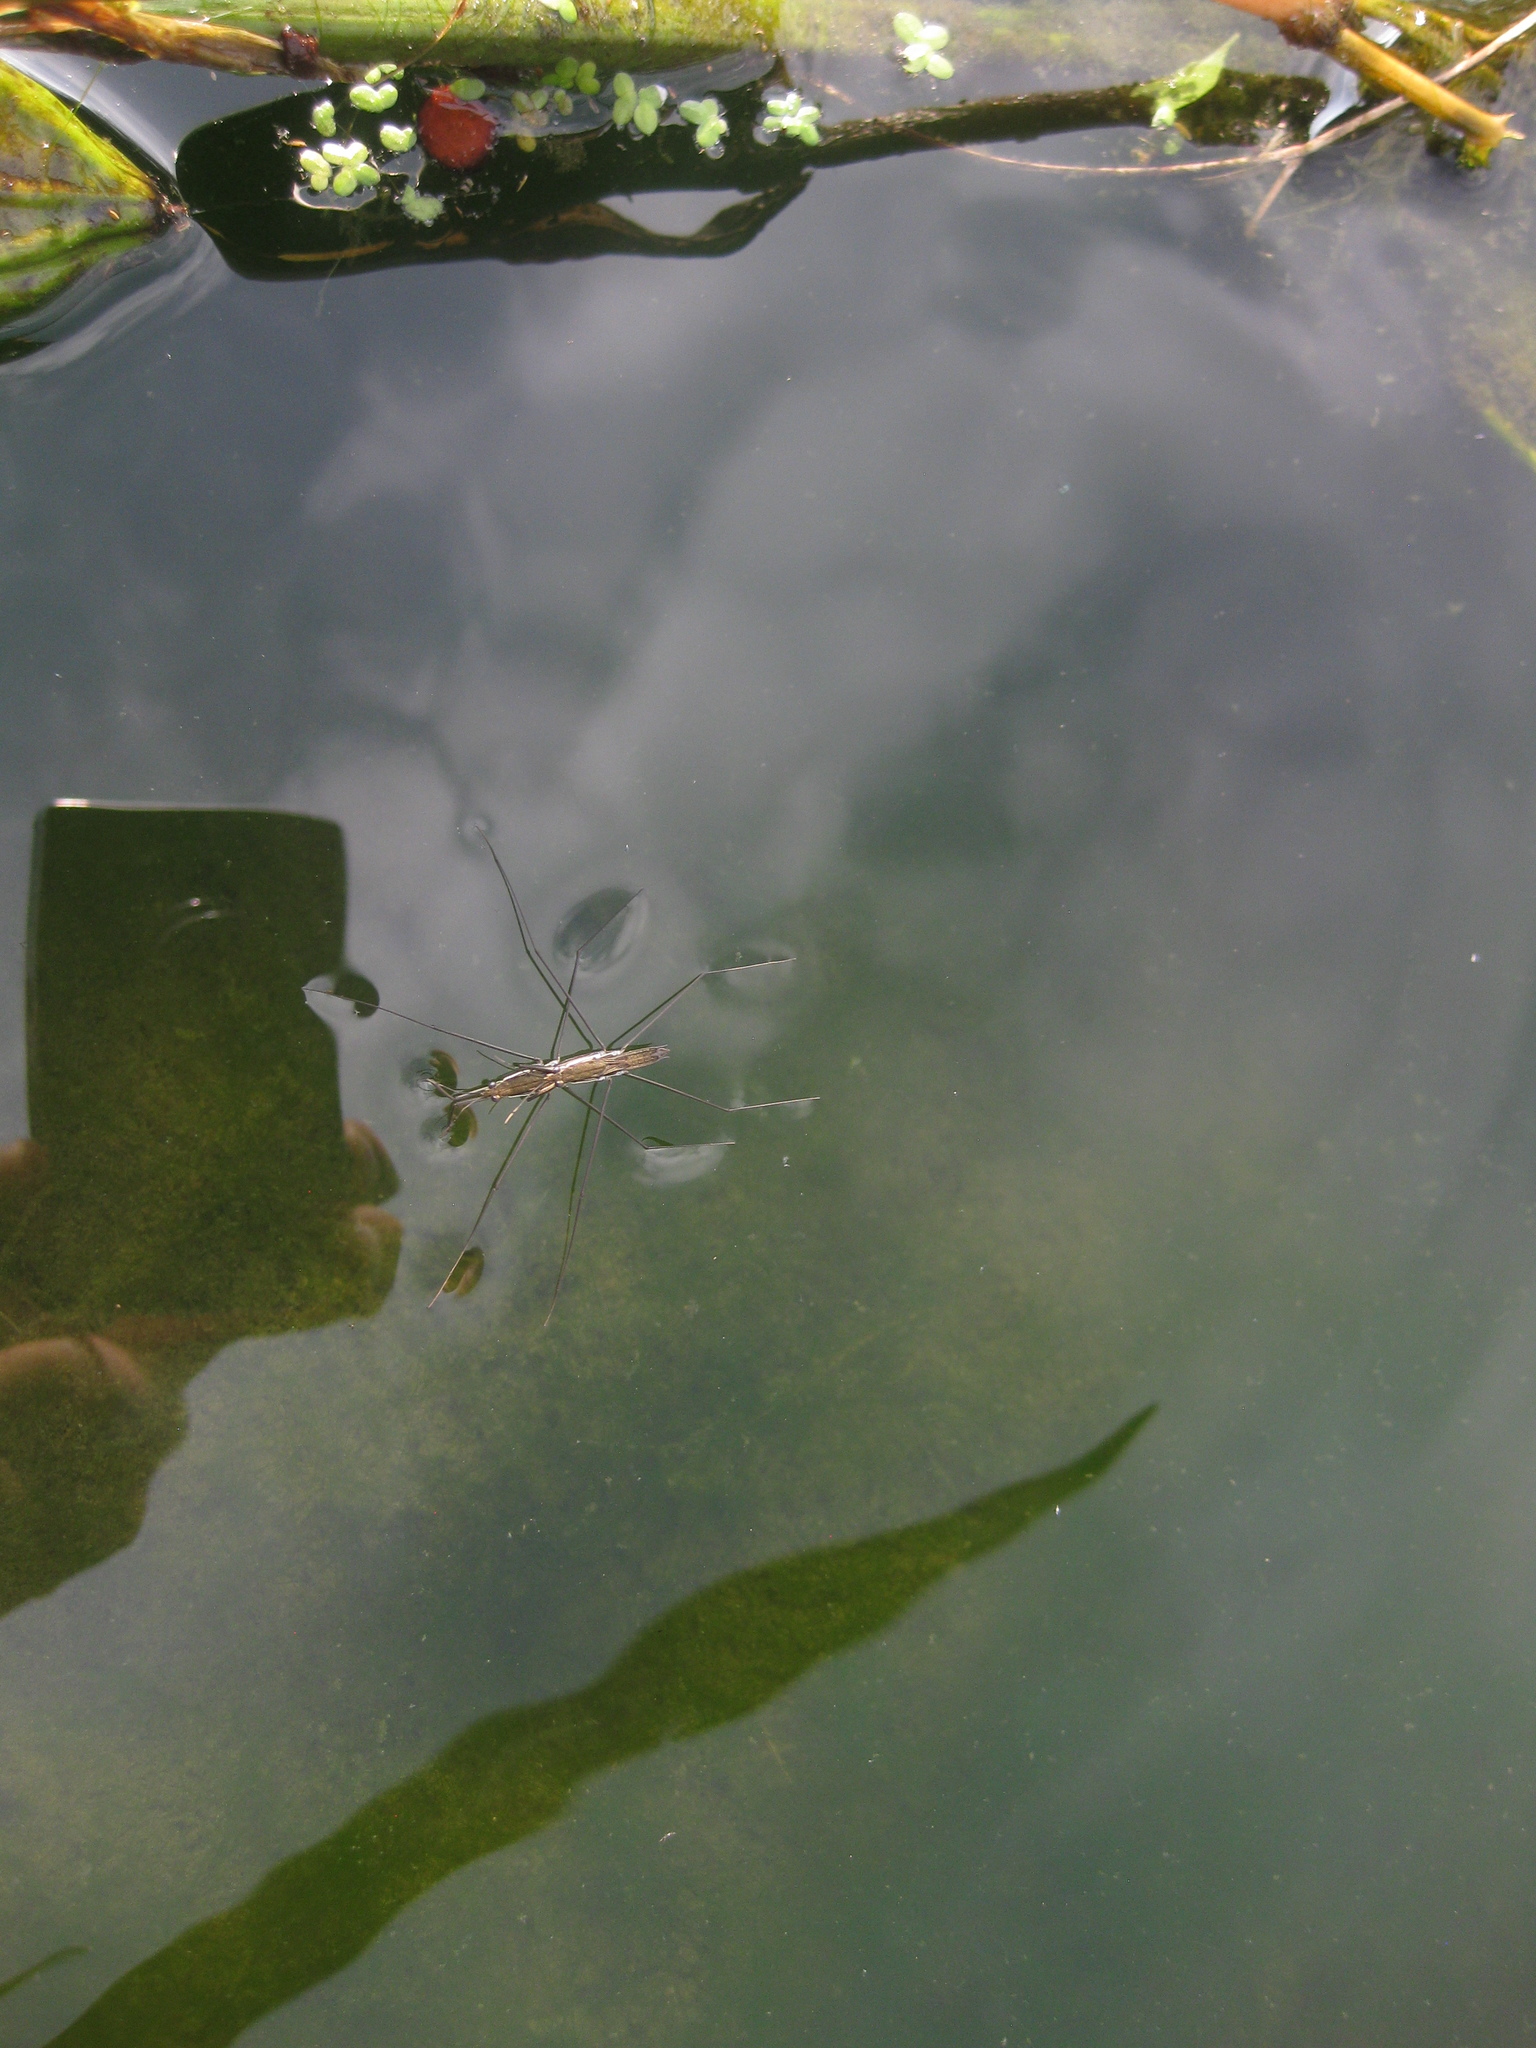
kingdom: Animalia
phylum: Arthropoda
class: Insecta
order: Hemiptera
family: Gerridae
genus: Aquarius
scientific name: Aquarius paludum
